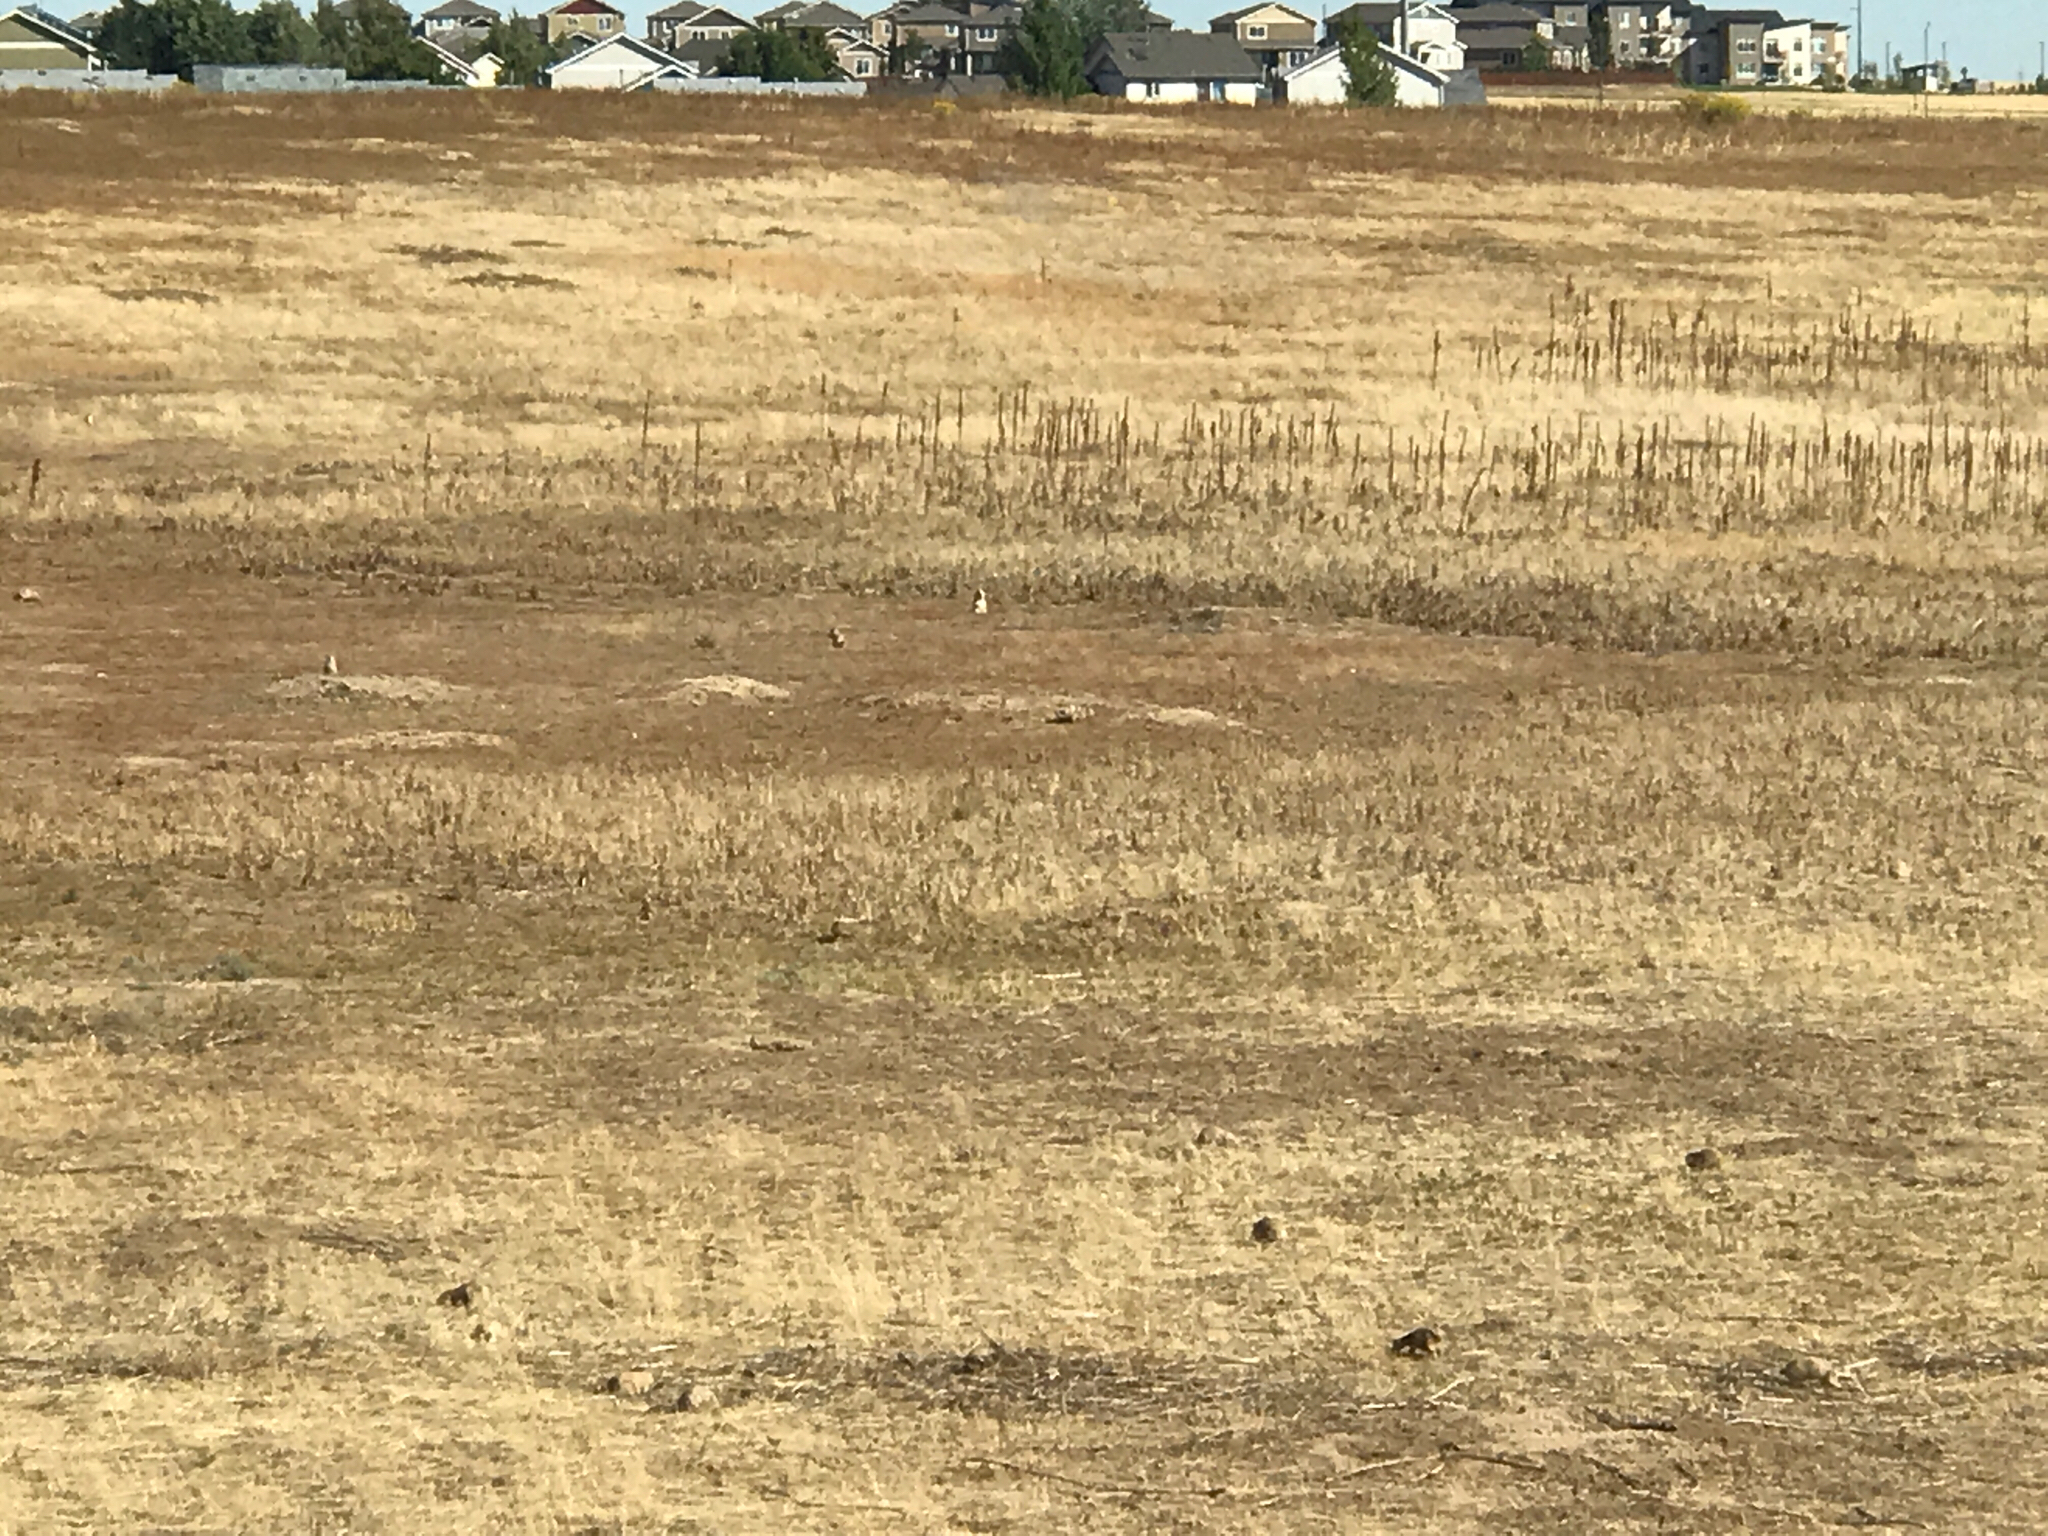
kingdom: Animalia
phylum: Chordata
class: Mammalia
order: Rodentia
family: Sciuridae
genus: Cynomys
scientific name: Cynomys ludovicianus
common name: Black-tailed prairie dog
